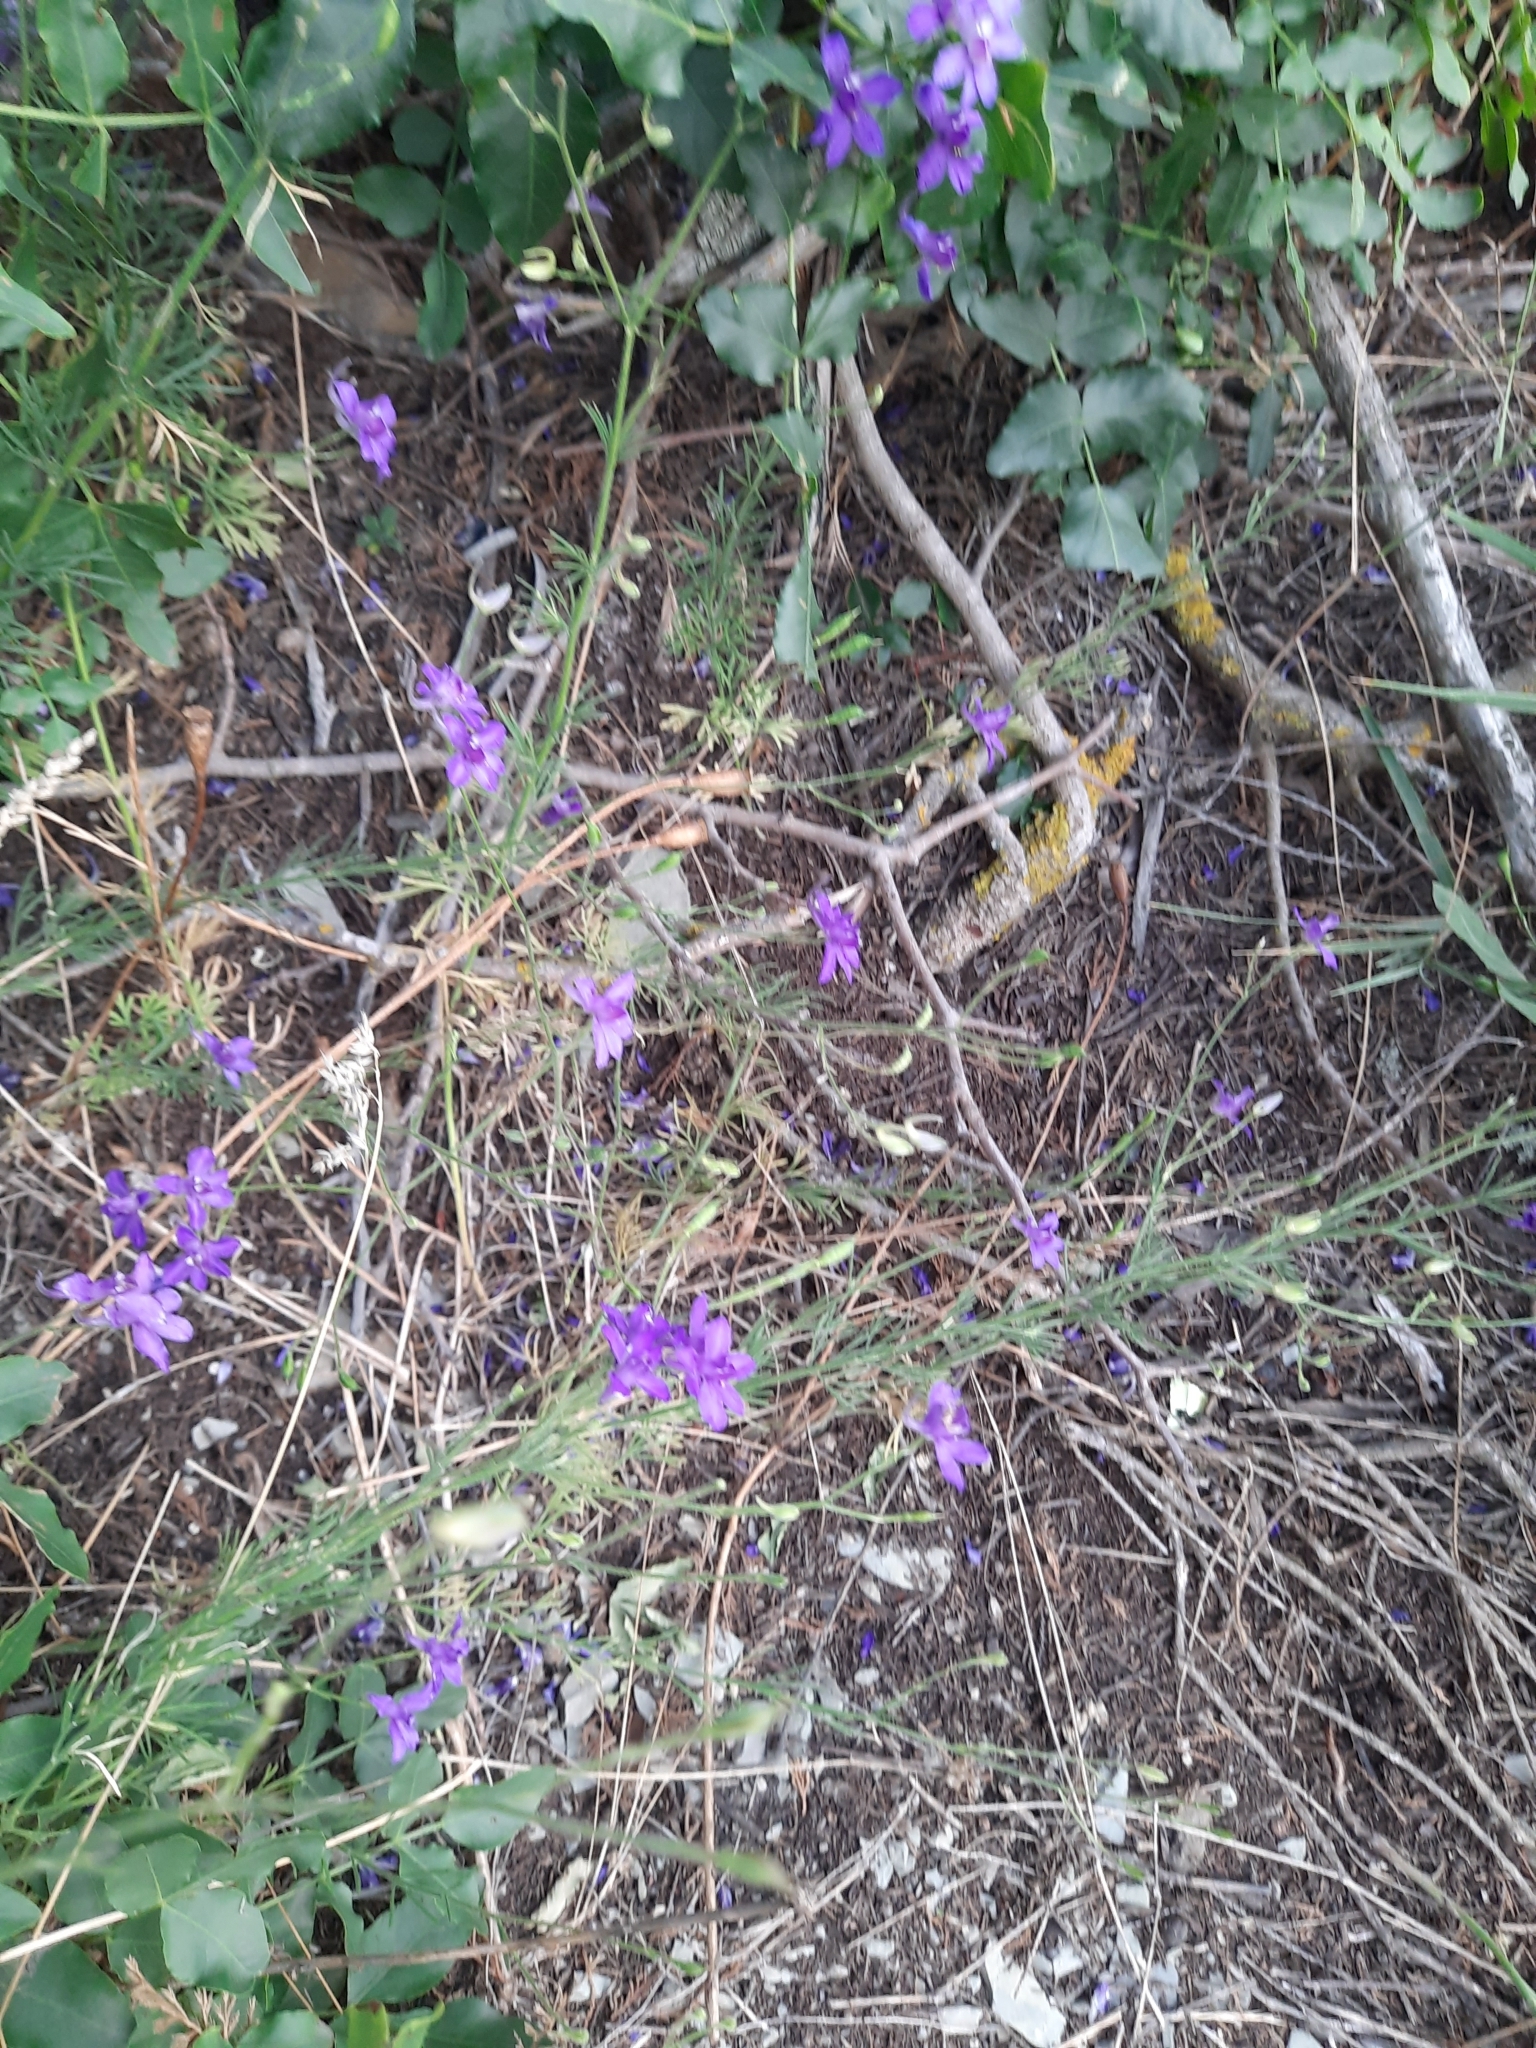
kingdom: Plantae
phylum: Tracheophyta
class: Magnoliopsida
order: Ranunculales
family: Ranunculaceae
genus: Delphinium
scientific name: Delphinium consolida
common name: Branching larkspur
